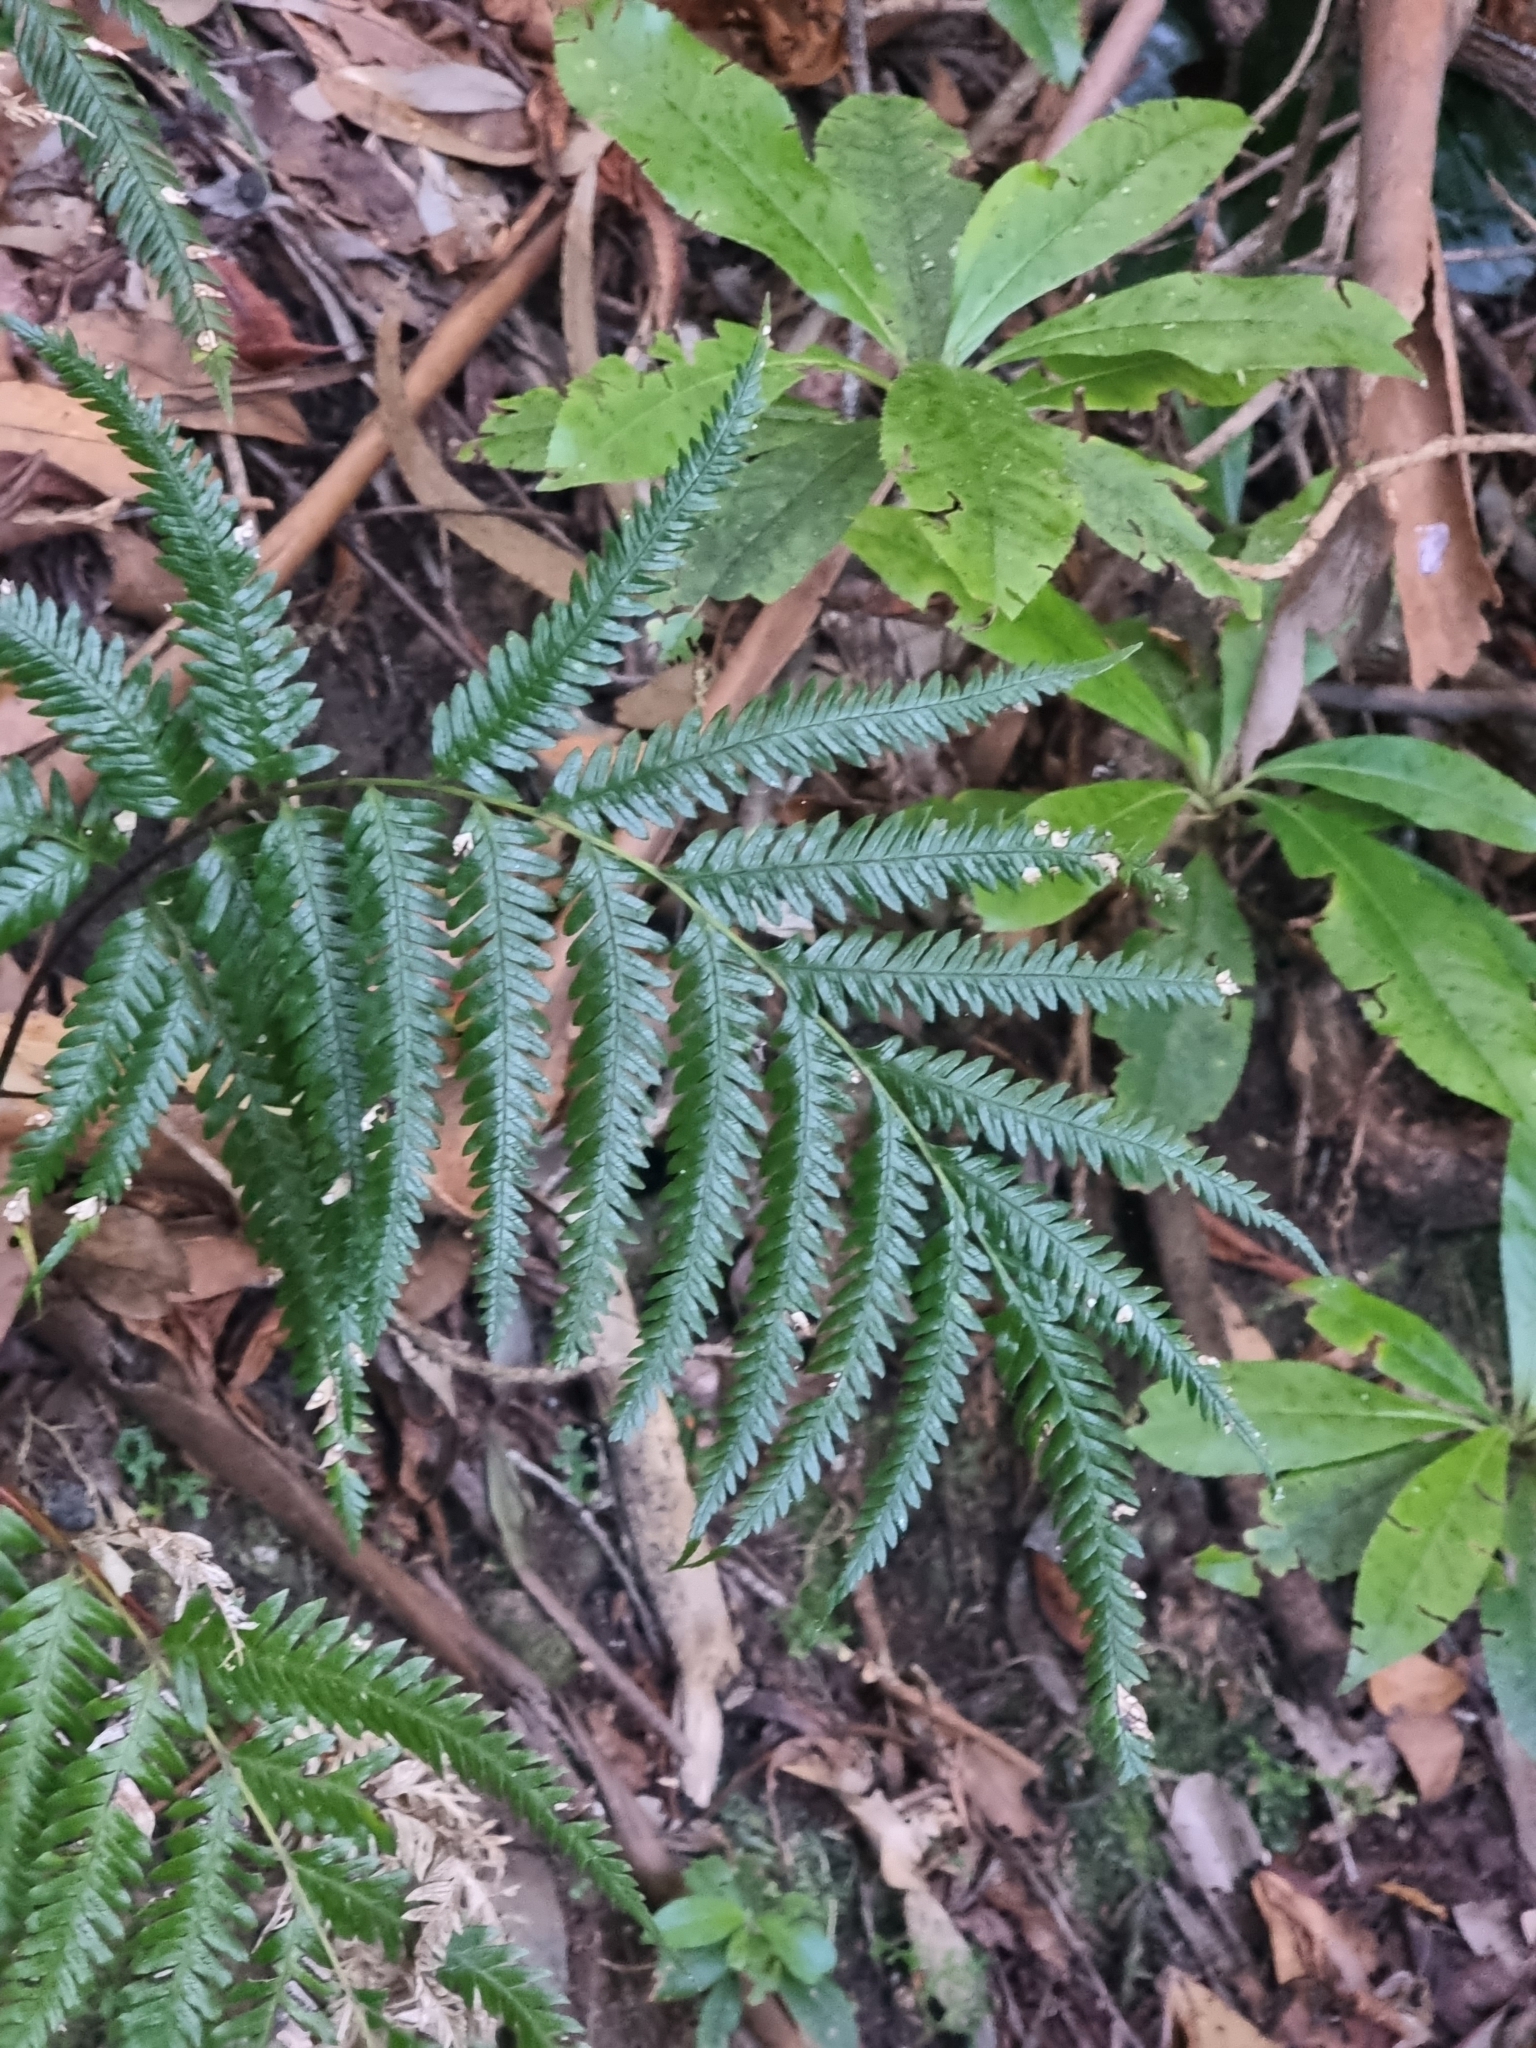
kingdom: Plantae
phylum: Tracheophyta
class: Polypodiopsida
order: Polypodiales
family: Pteridaceae
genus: Pteris
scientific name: Pteris incompleta
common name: Laurisilva brake
